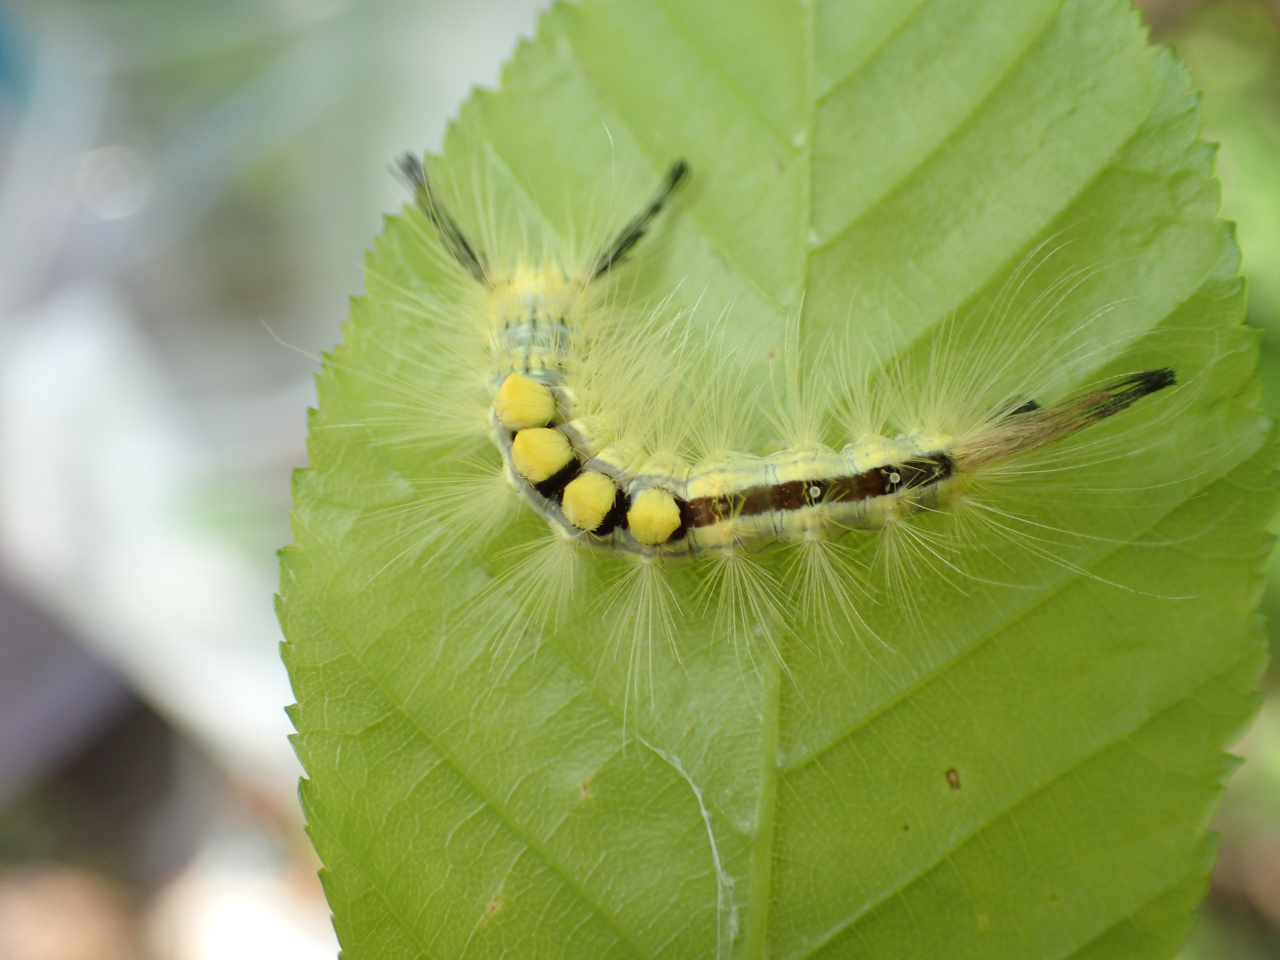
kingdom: Animalia
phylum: Arthropoda
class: Insecta
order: Lepidoptera
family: Erebidae
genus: Orgyia
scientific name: Orgyia definita
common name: Definite tussock moth
